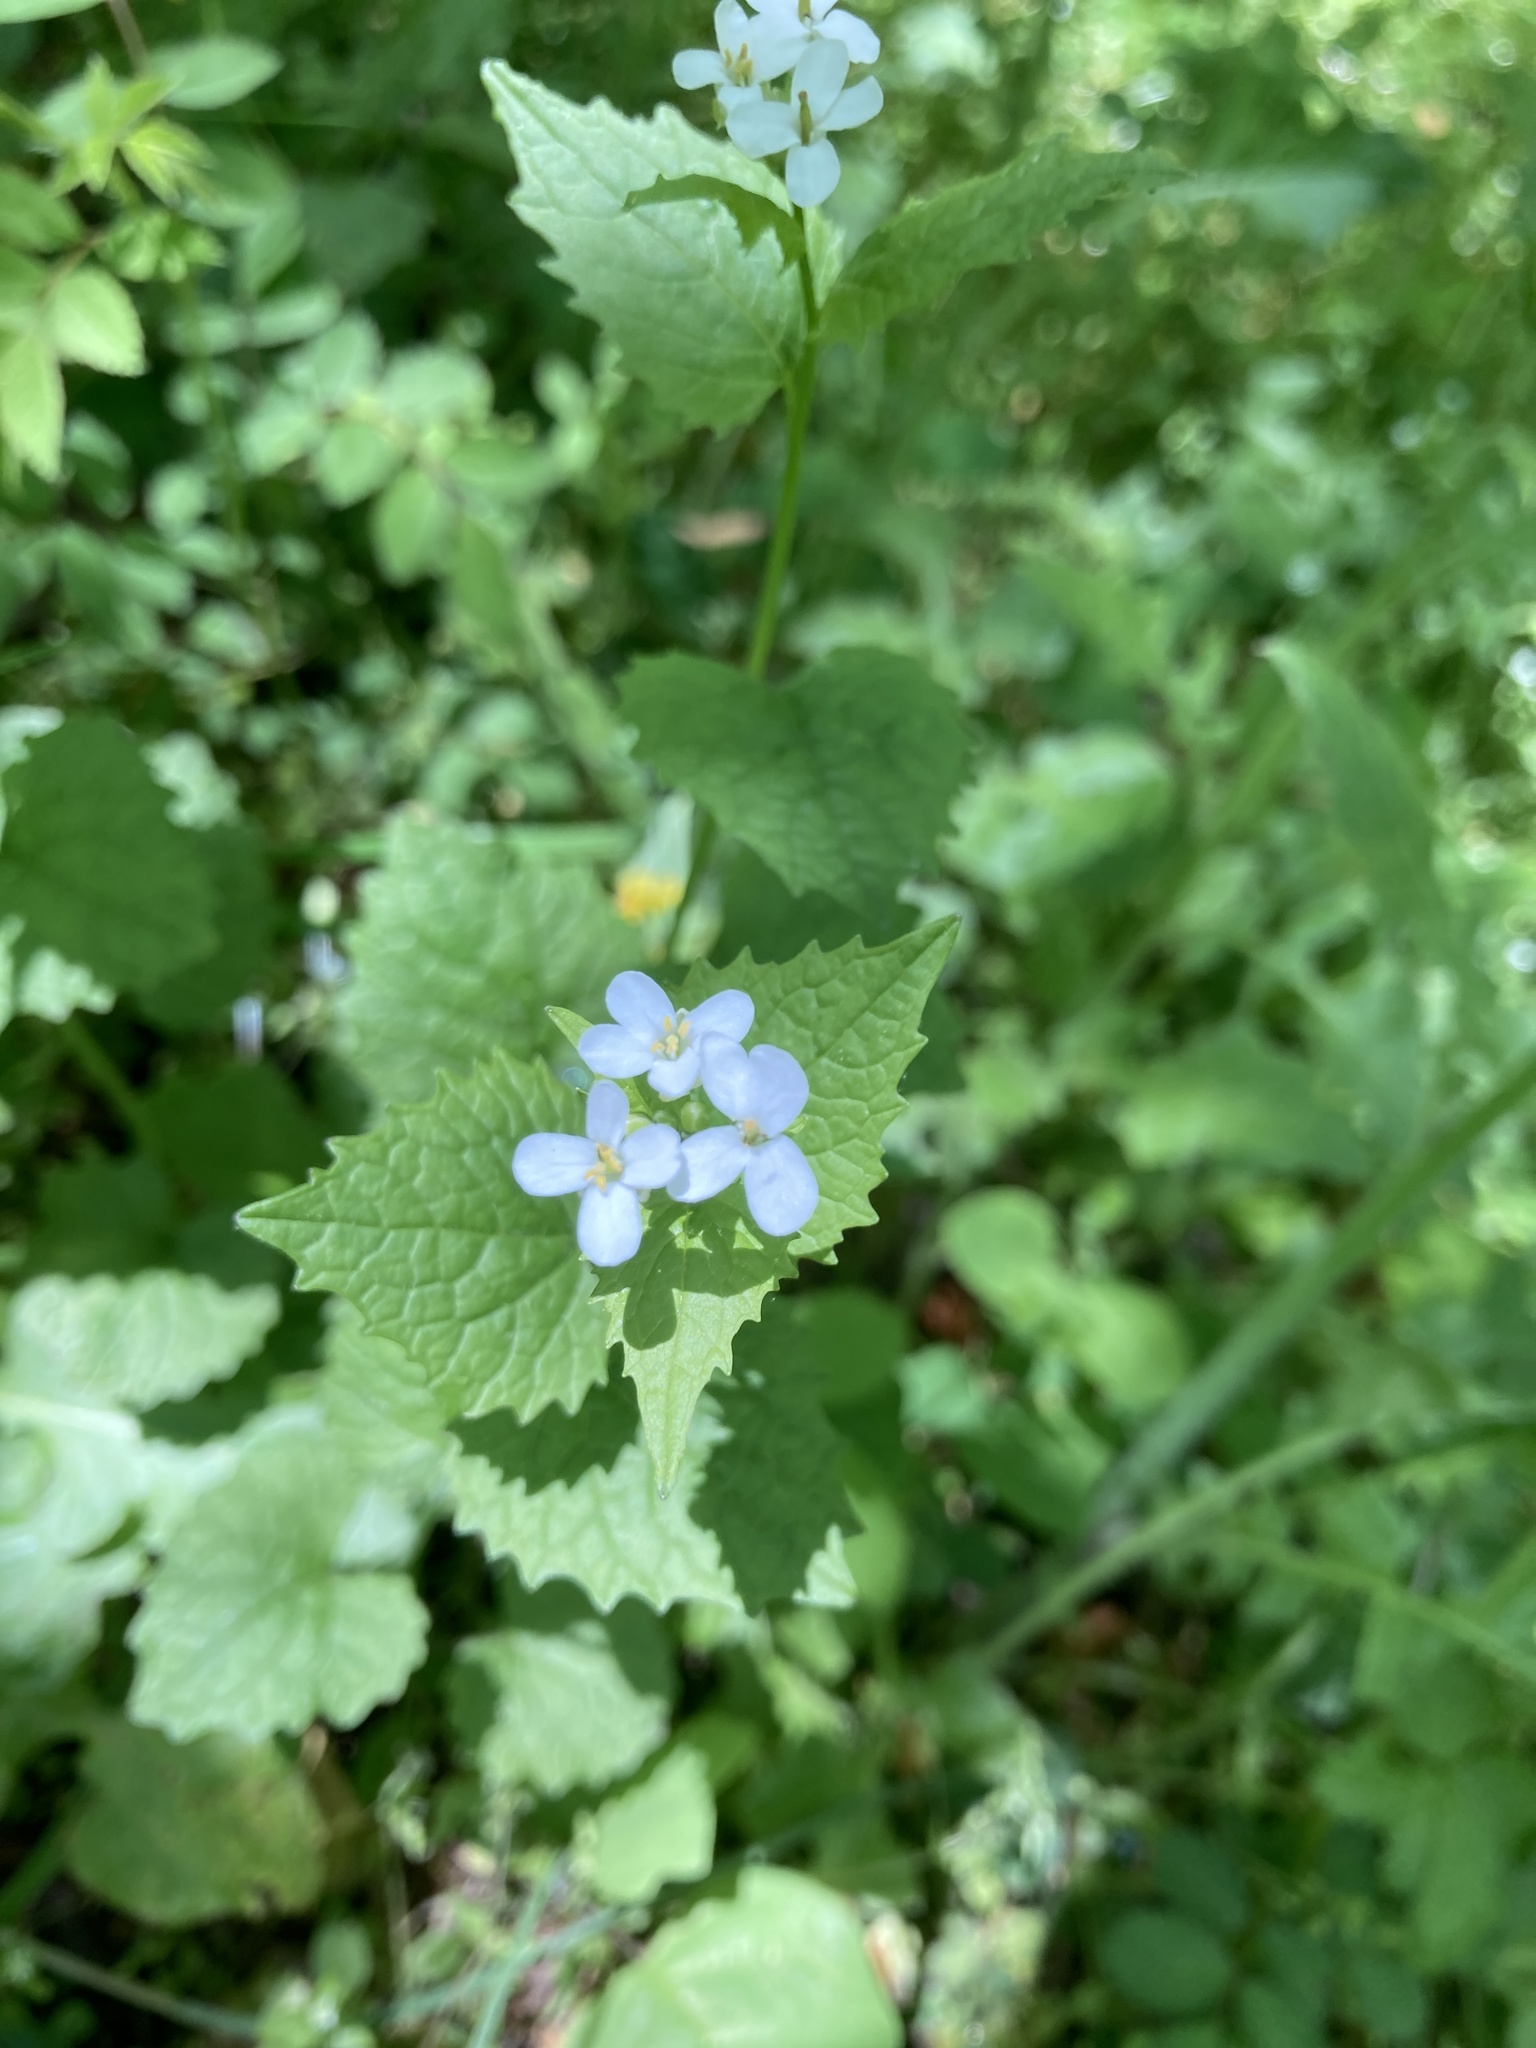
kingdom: Plantae
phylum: Tracheophyta
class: Magnoliopsida
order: Brassicales
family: Brassicaceae
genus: Alliaria
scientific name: Alliaria petiolata
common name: Garlic mustard
